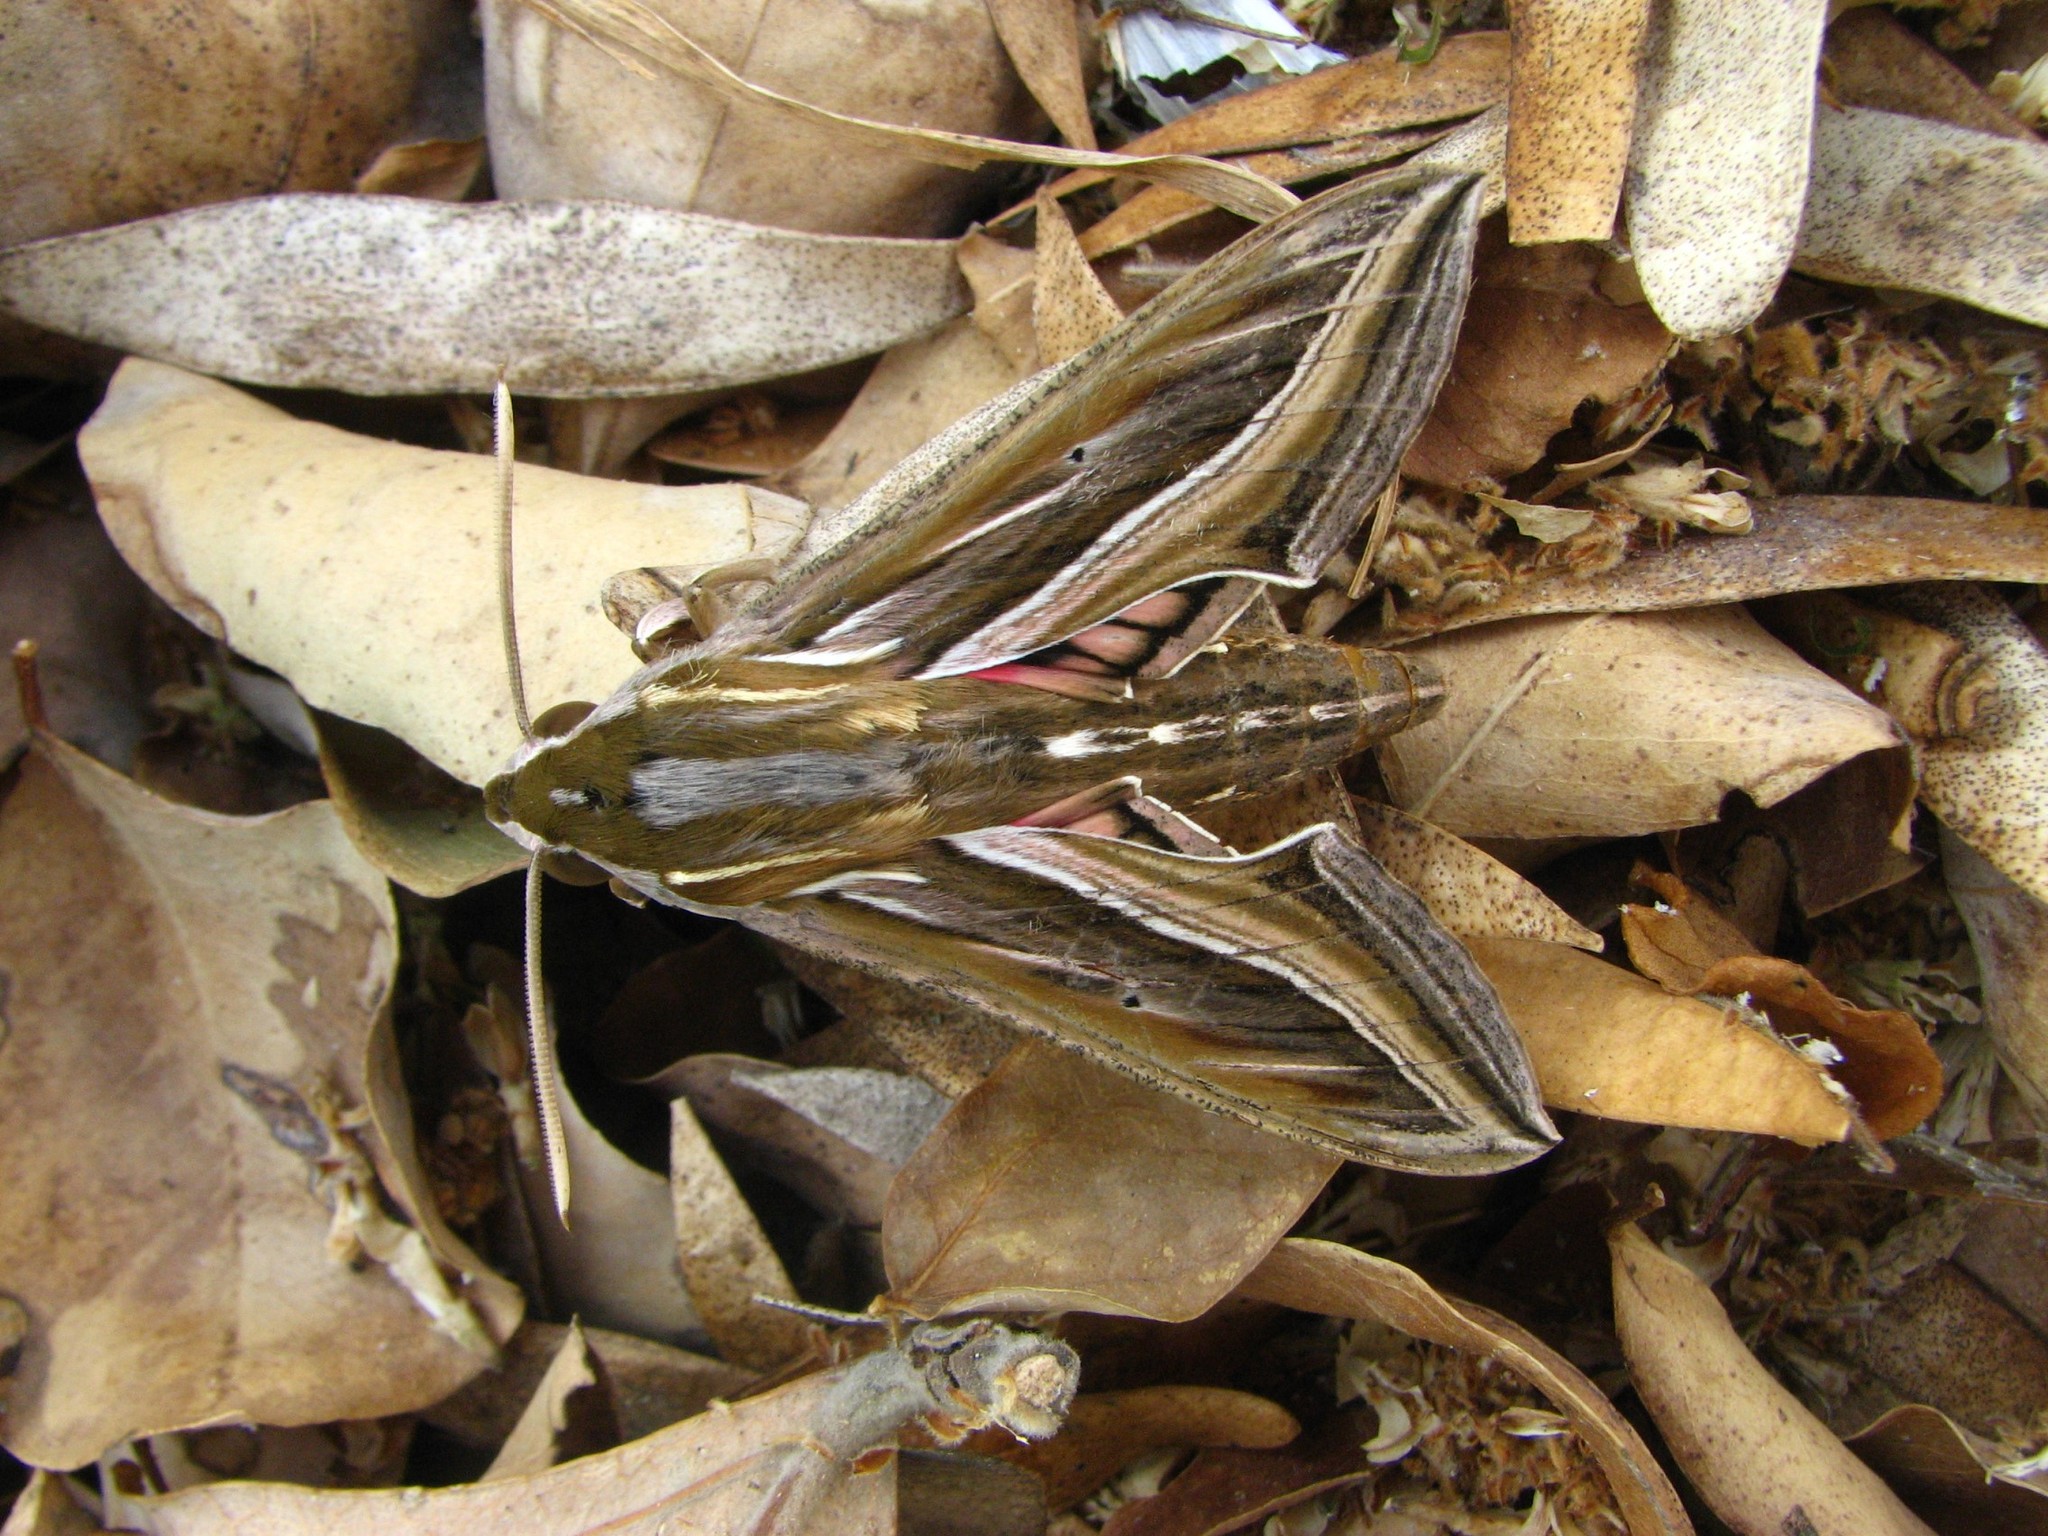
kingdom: Animalia
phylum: Arthropoda
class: Insecta
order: Lepidoptera
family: Sphingidae
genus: Hippotion
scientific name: Hippotion celerio
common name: Silver-striped hawk-moth
